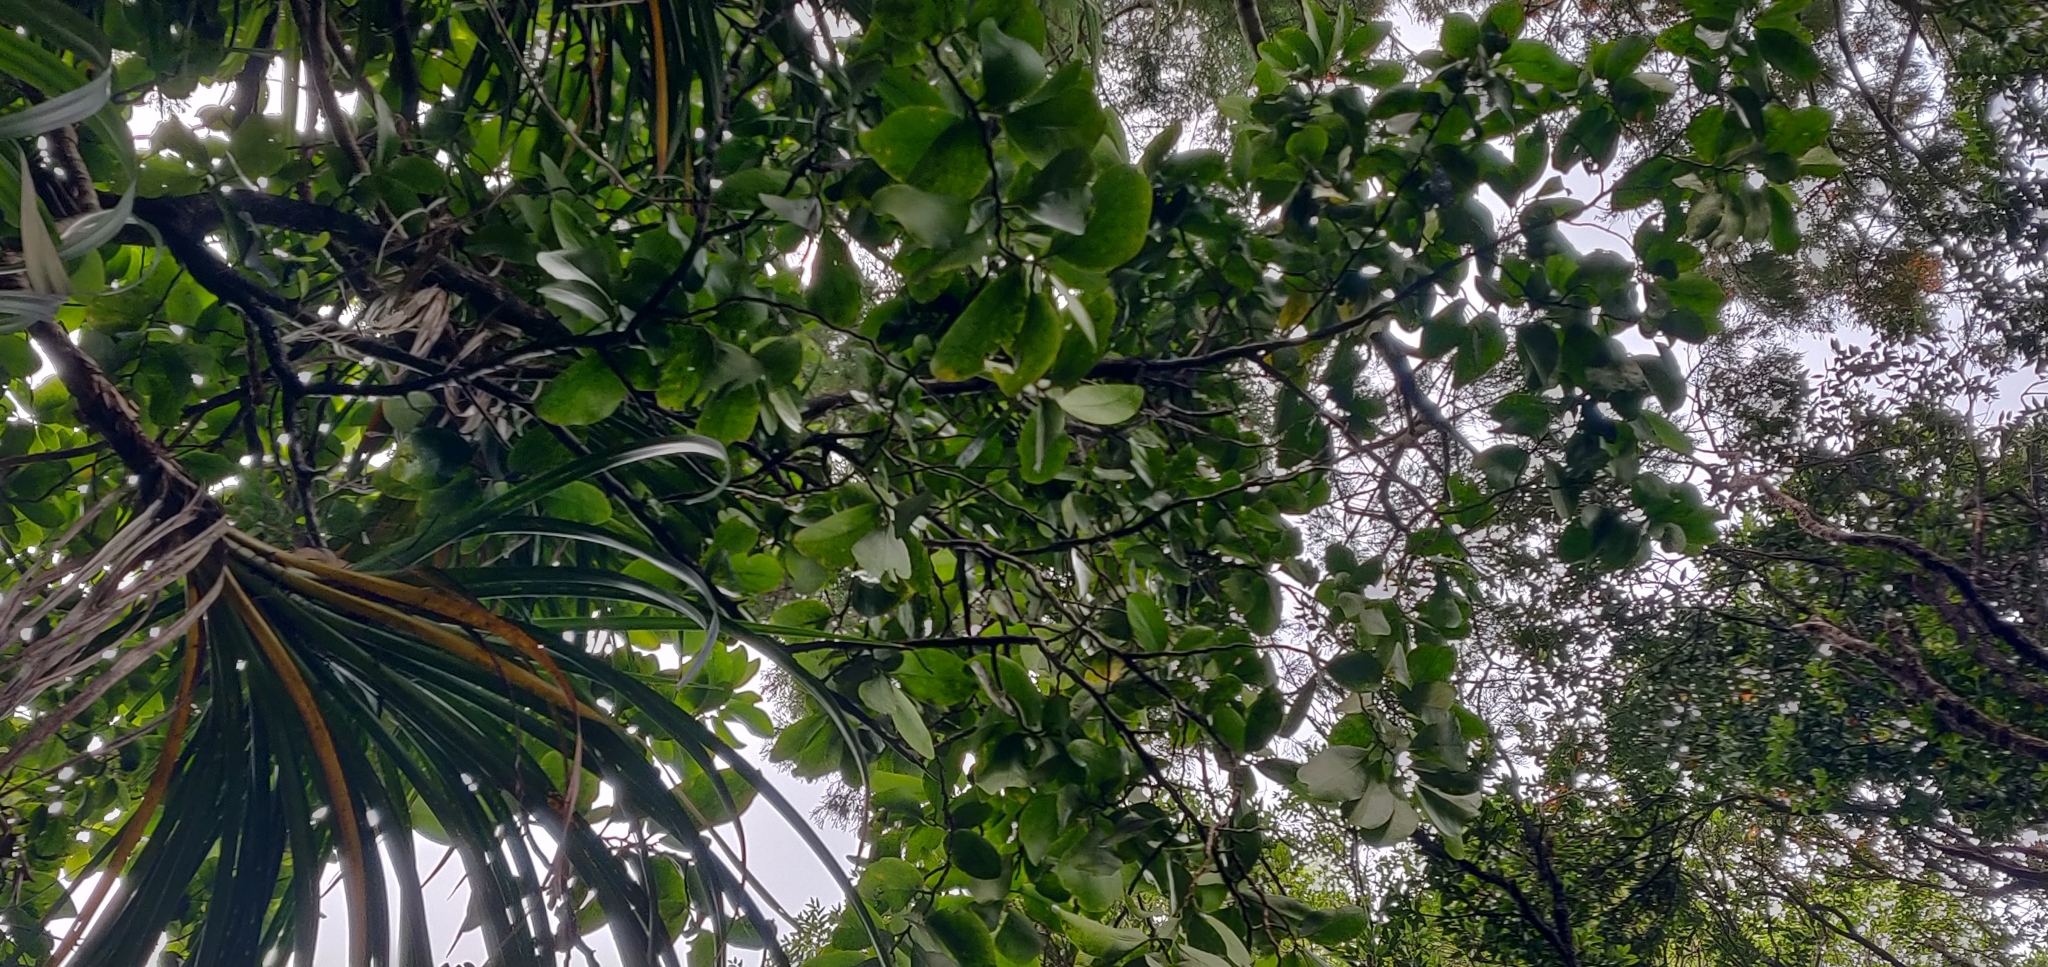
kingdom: Plantae
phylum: Tracheophyta
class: Magnoliopsida
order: Apiales
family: Griseliniaceae
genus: Griselinia
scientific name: Griselinia lucida
